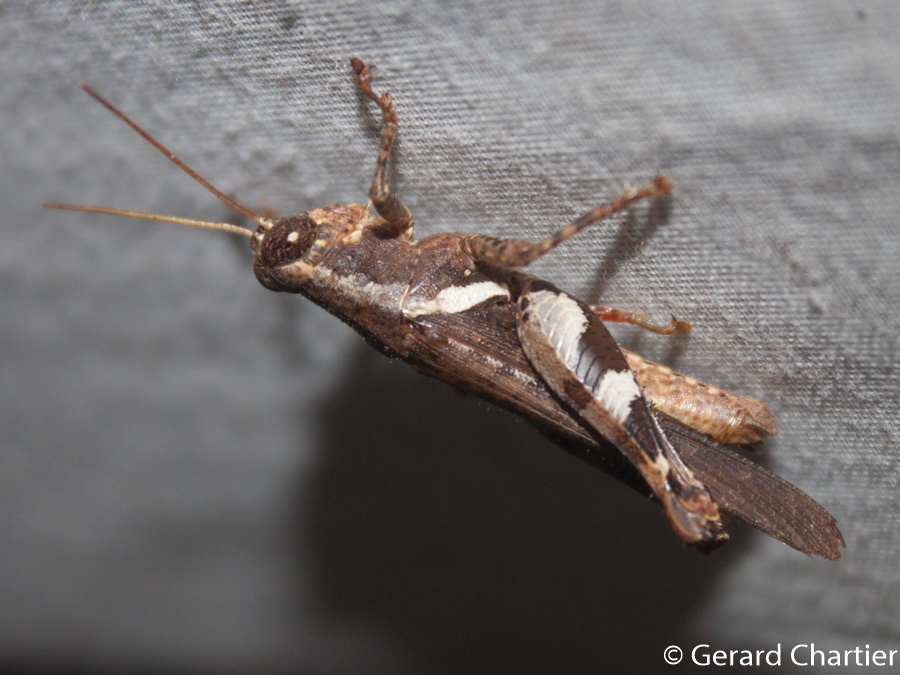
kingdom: Animalia
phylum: Arthropoda
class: Insecta
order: Orthoptera
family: Acrididae
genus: Xenocatantops
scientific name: Xenocatantops humile
